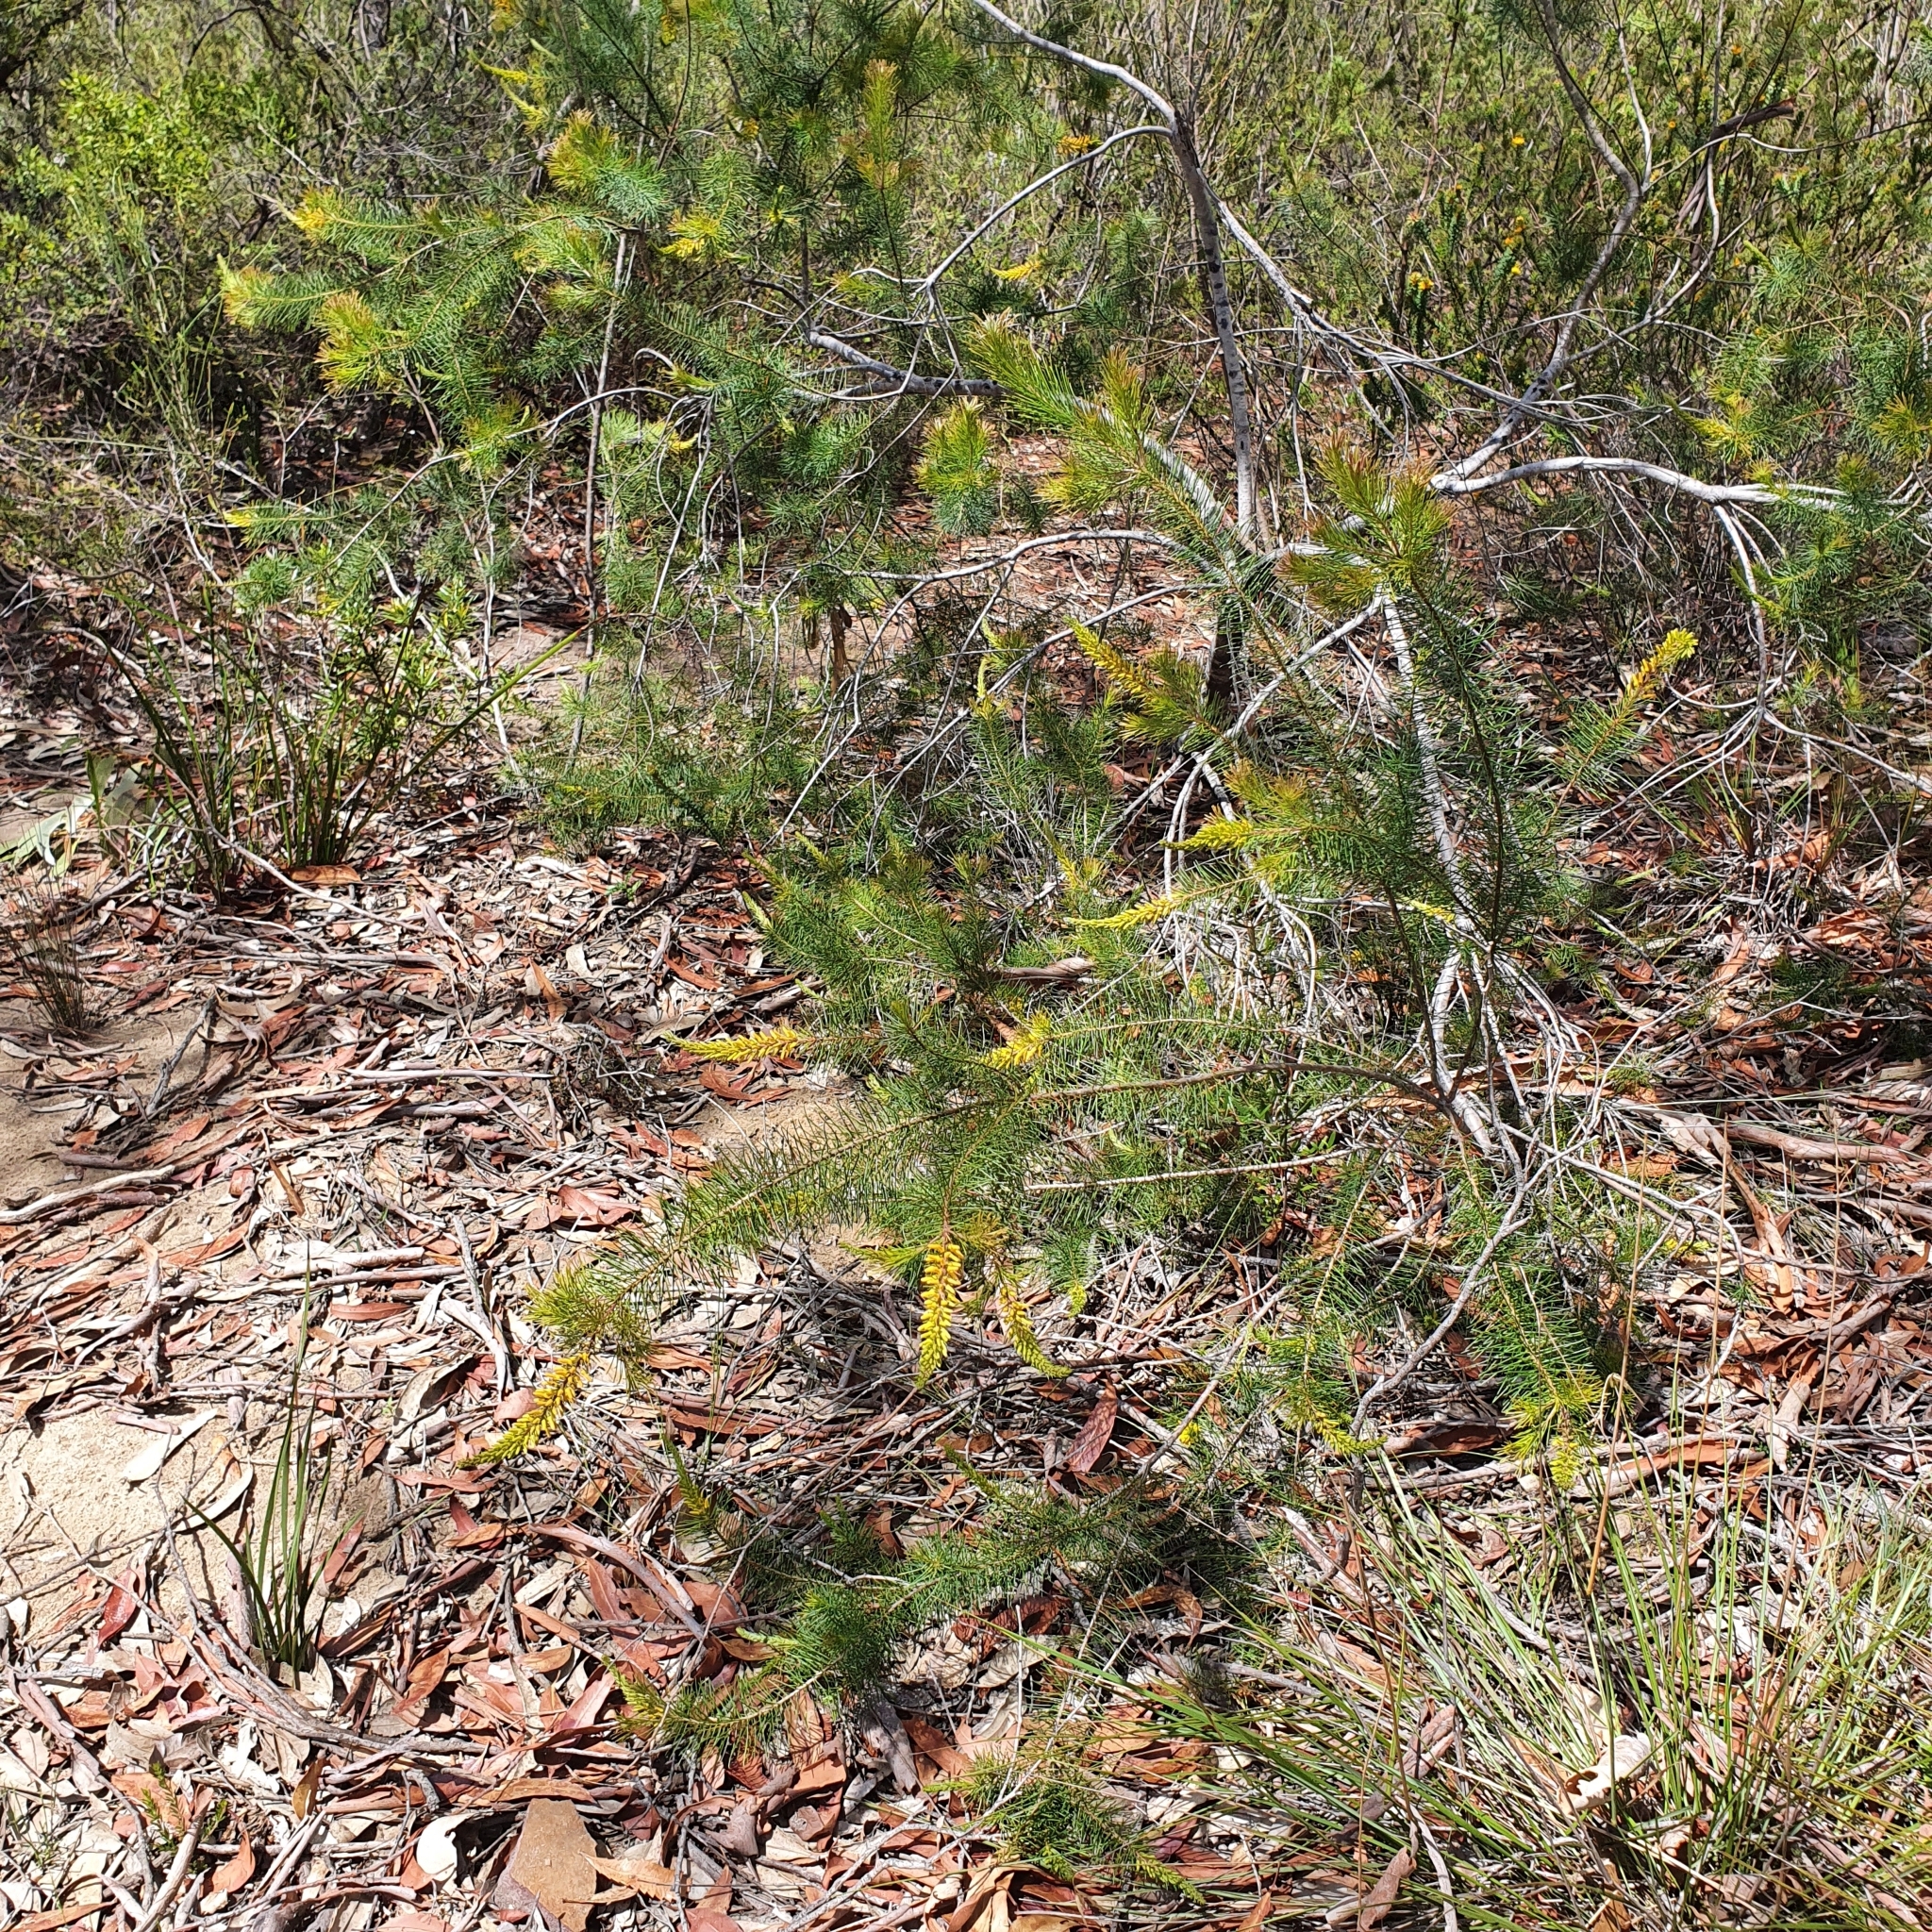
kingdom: Plantae
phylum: Tracheophyta
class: Magnoliopsida
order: Proteales
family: Proteaceae
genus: Persoonia
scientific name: Persoonia pinifolia
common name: Pine-leaf geebung
